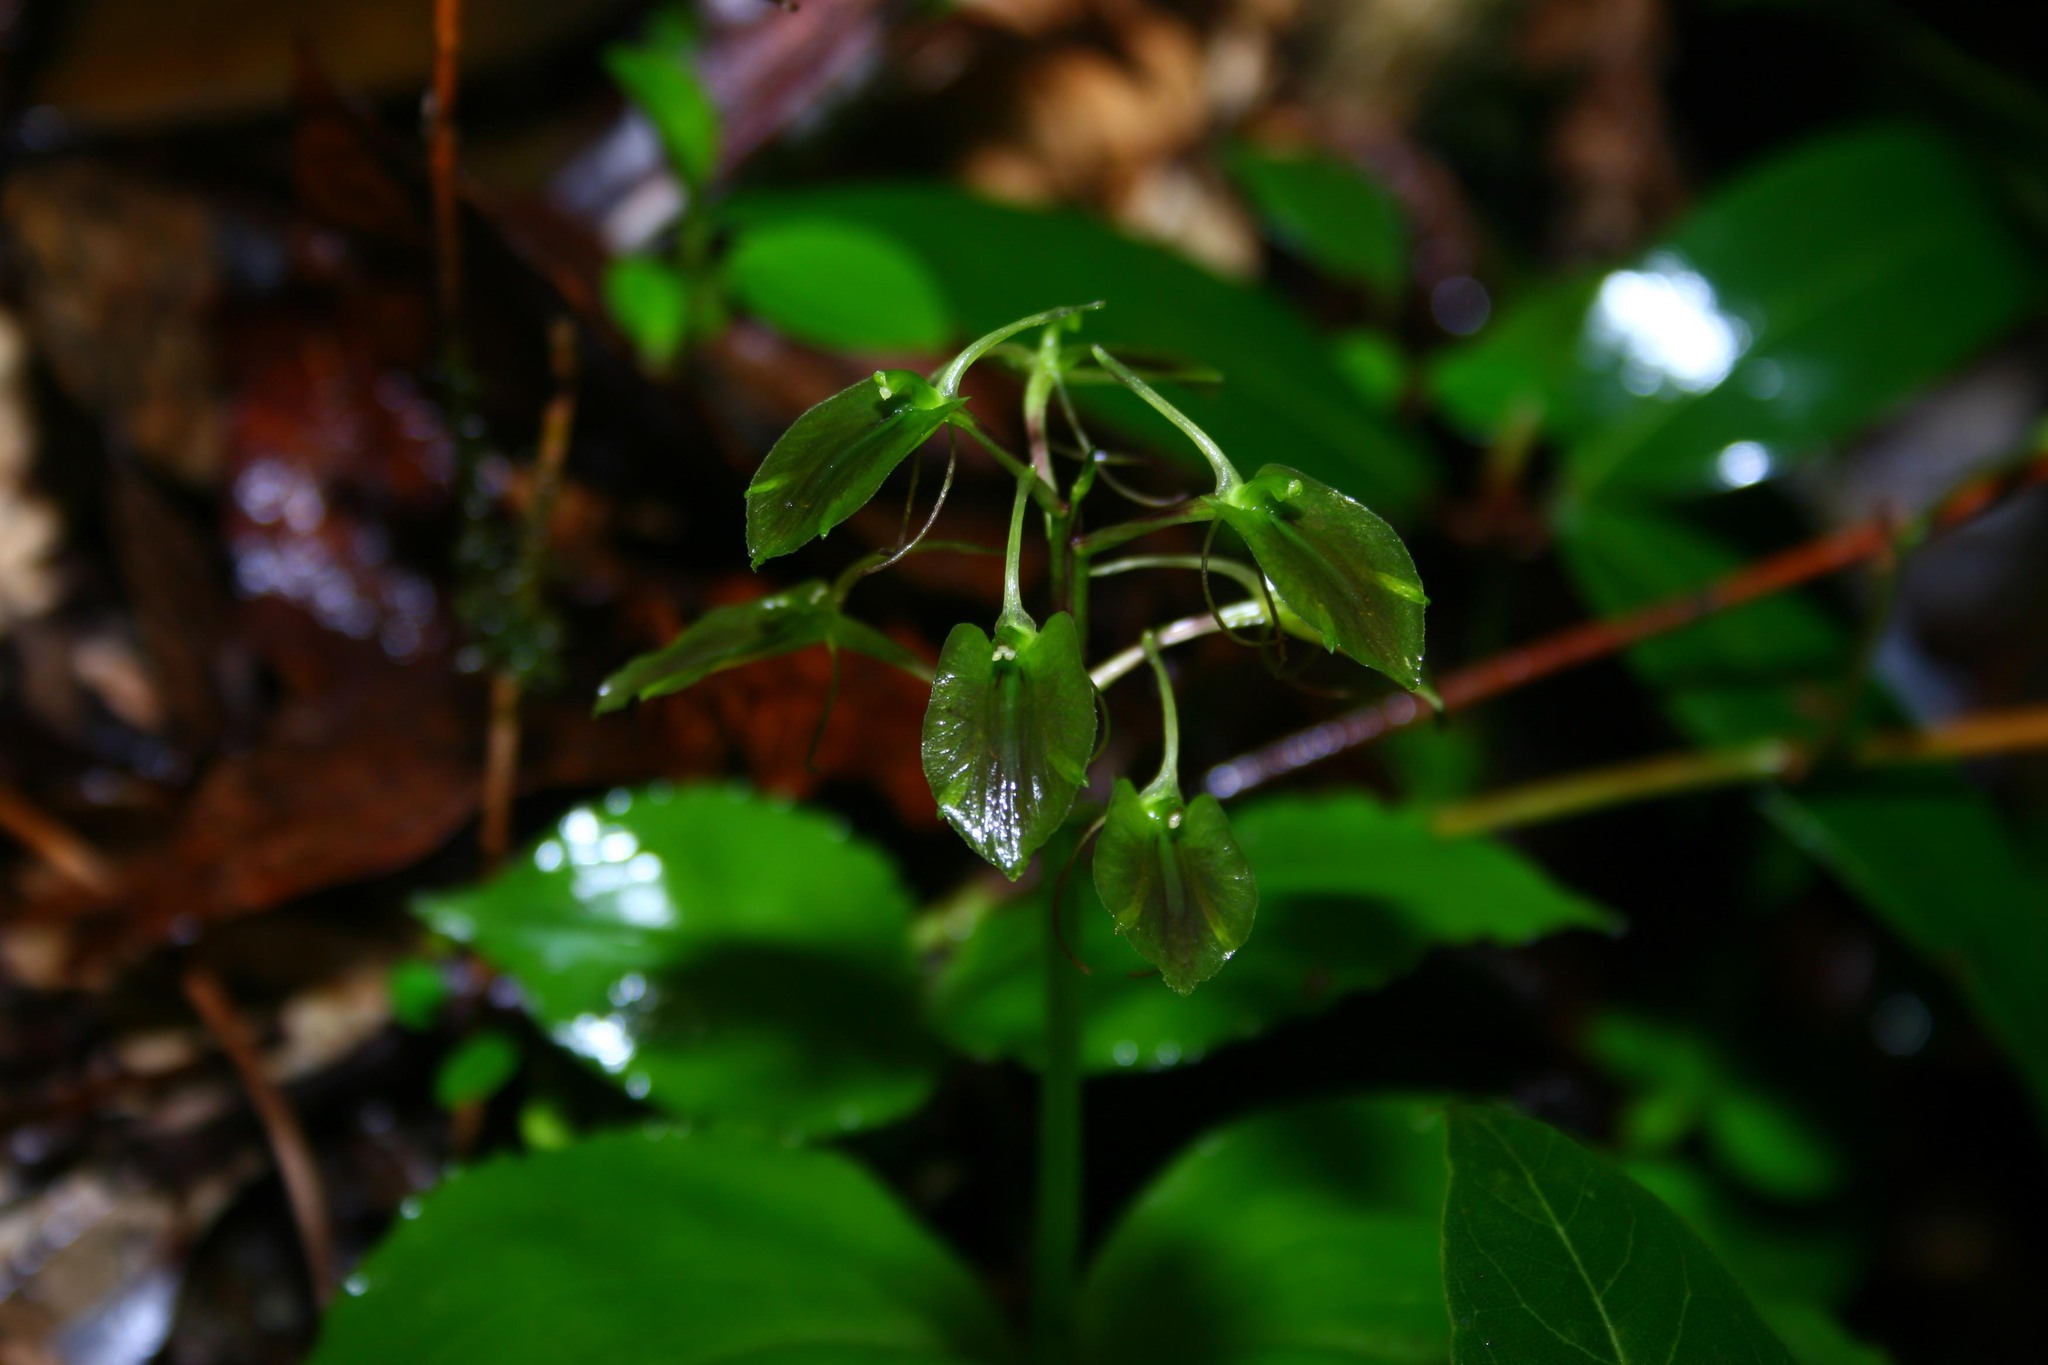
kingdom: Plantae
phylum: Tracheophyta
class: Liliopsida
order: Asparagales
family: Orchidaceae
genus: Liparis
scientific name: Liparis arnoglossophylla
